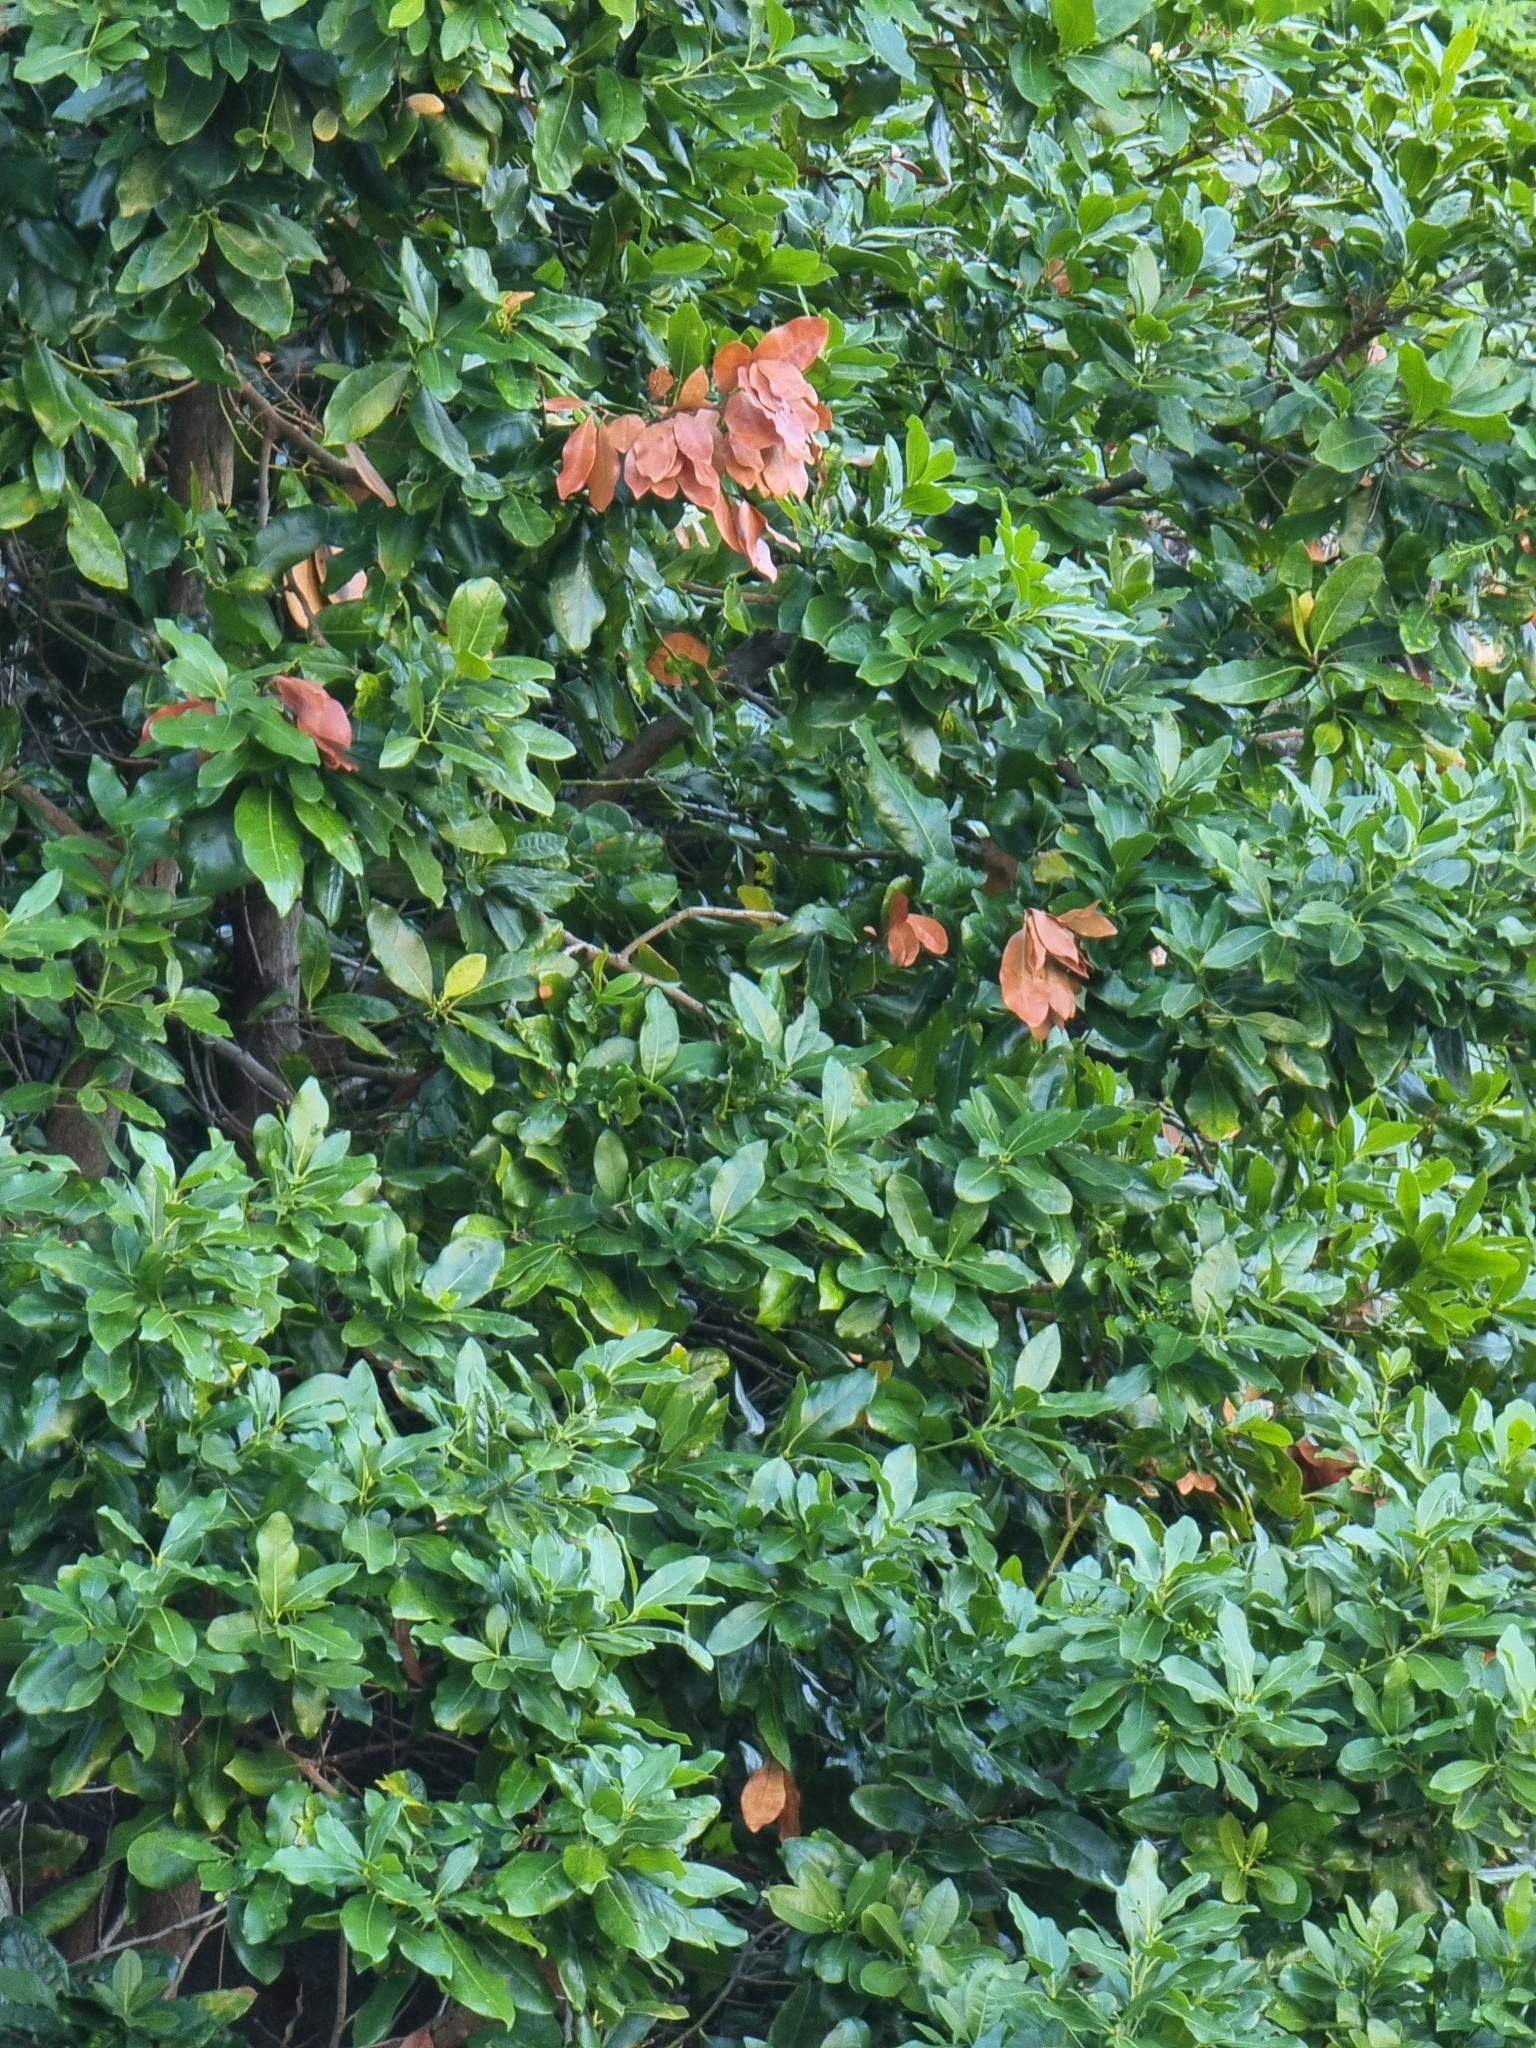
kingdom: Plantae
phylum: Tracheophyta
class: Magnoliopsida
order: Laurales
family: Lauraceae
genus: Apollonias
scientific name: Apollonias barbujana
